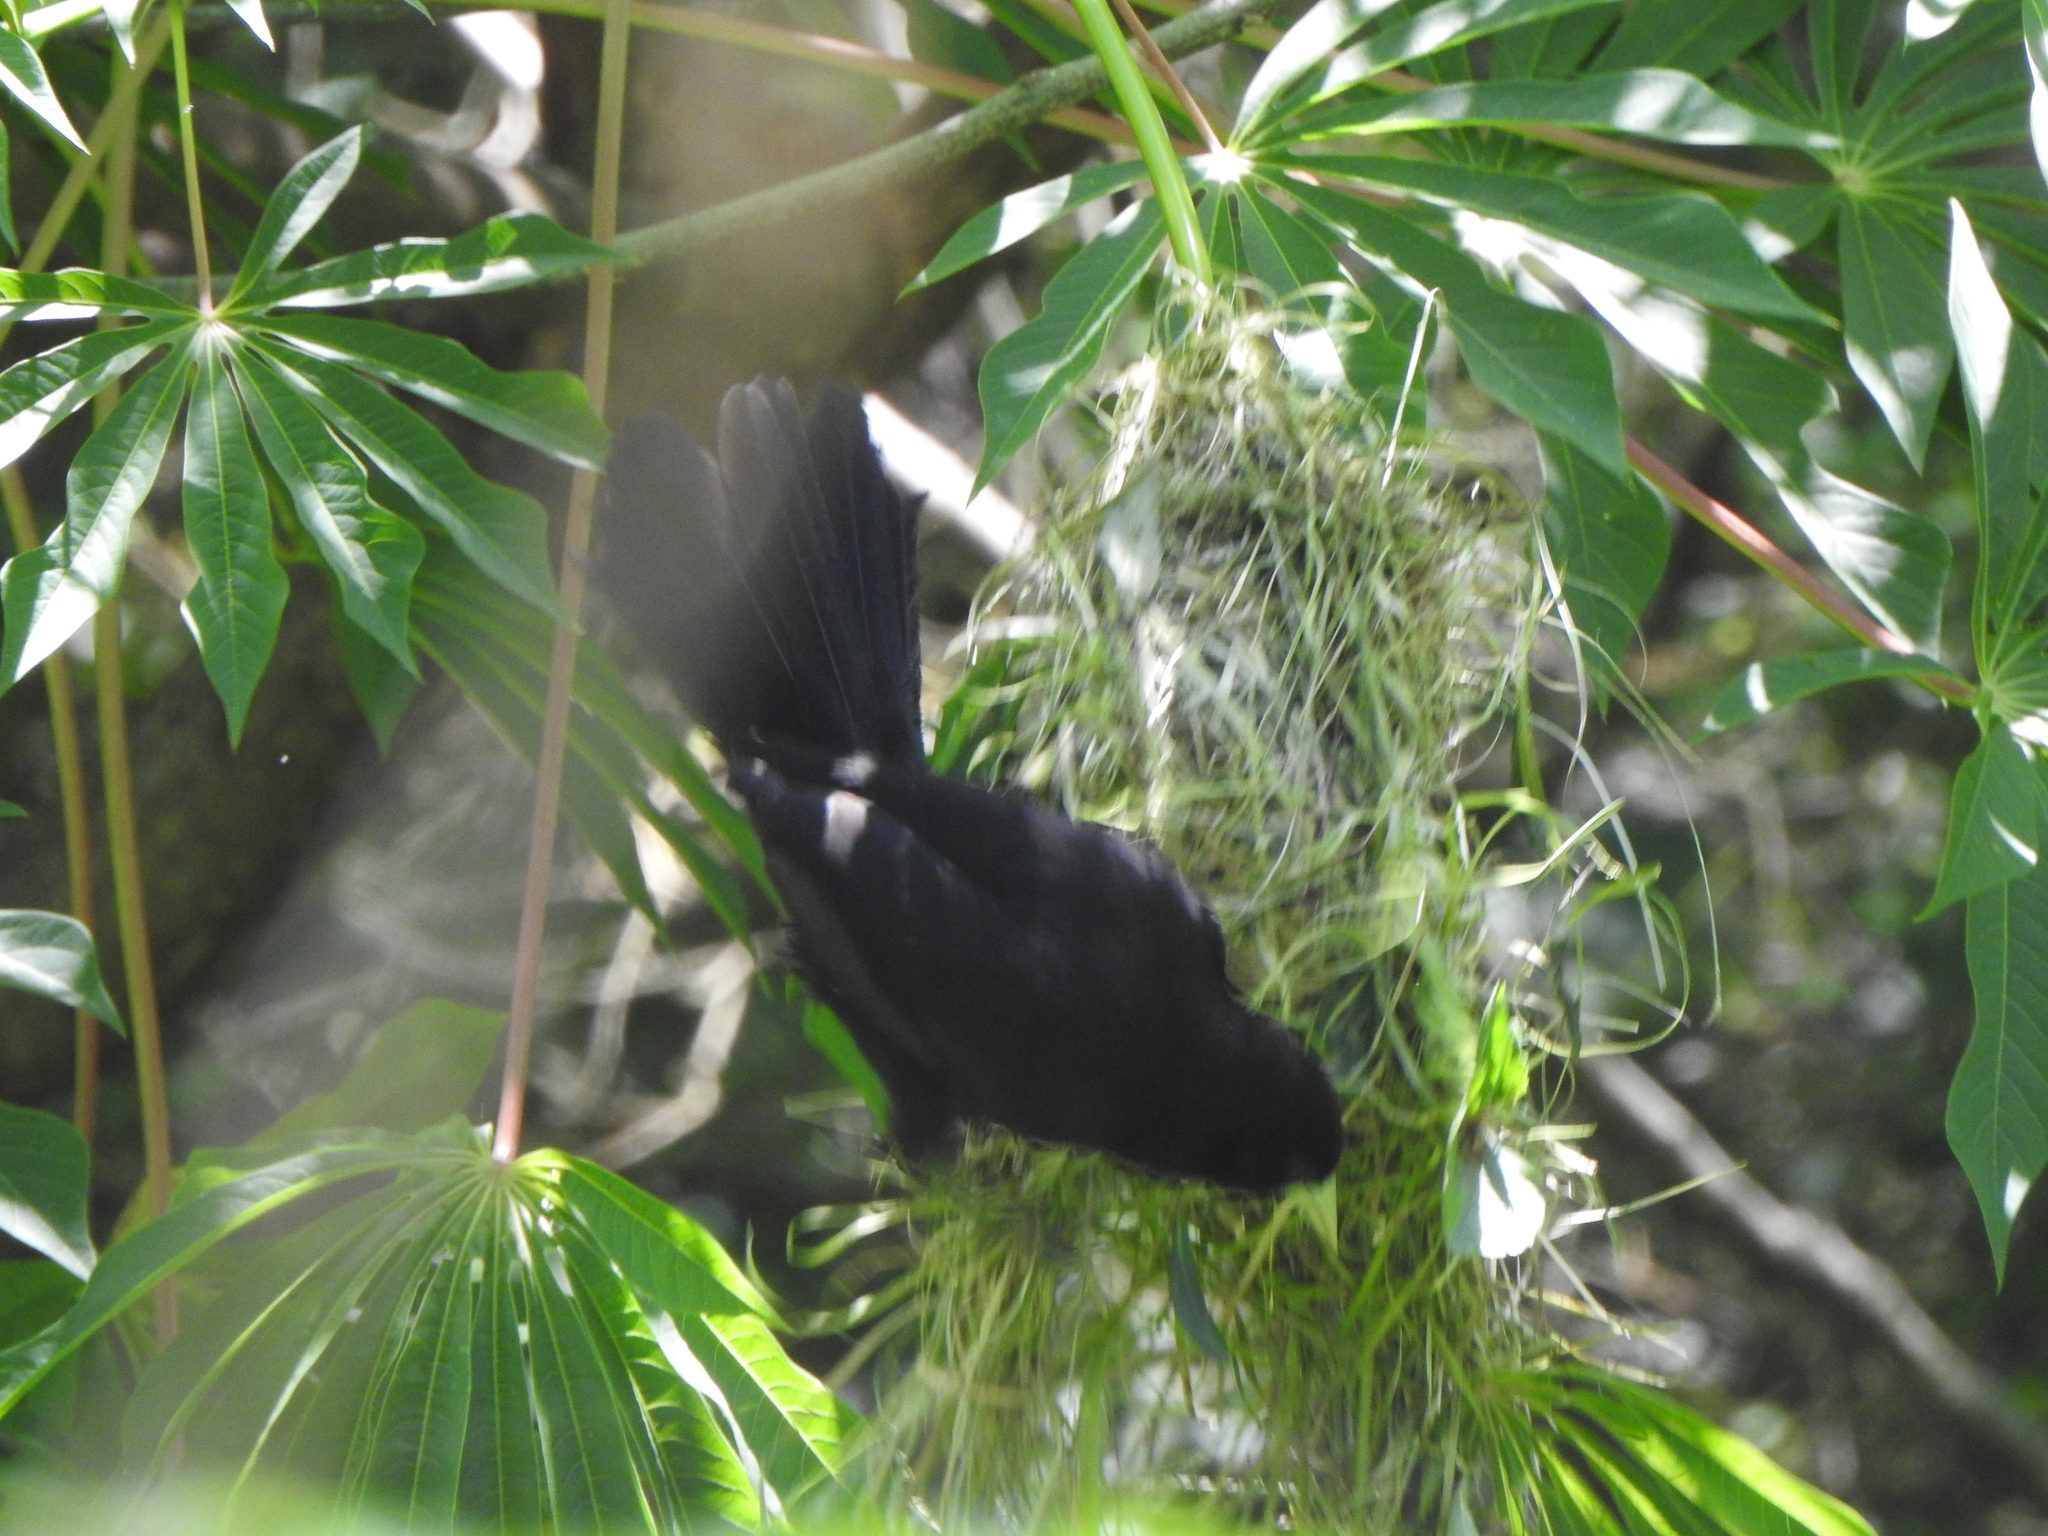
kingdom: Animalia
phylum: Chordata
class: Aves
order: Passeriformes
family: Icteridae
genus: Cacicus
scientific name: Cacicus solitarius
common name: Solitary cacique
